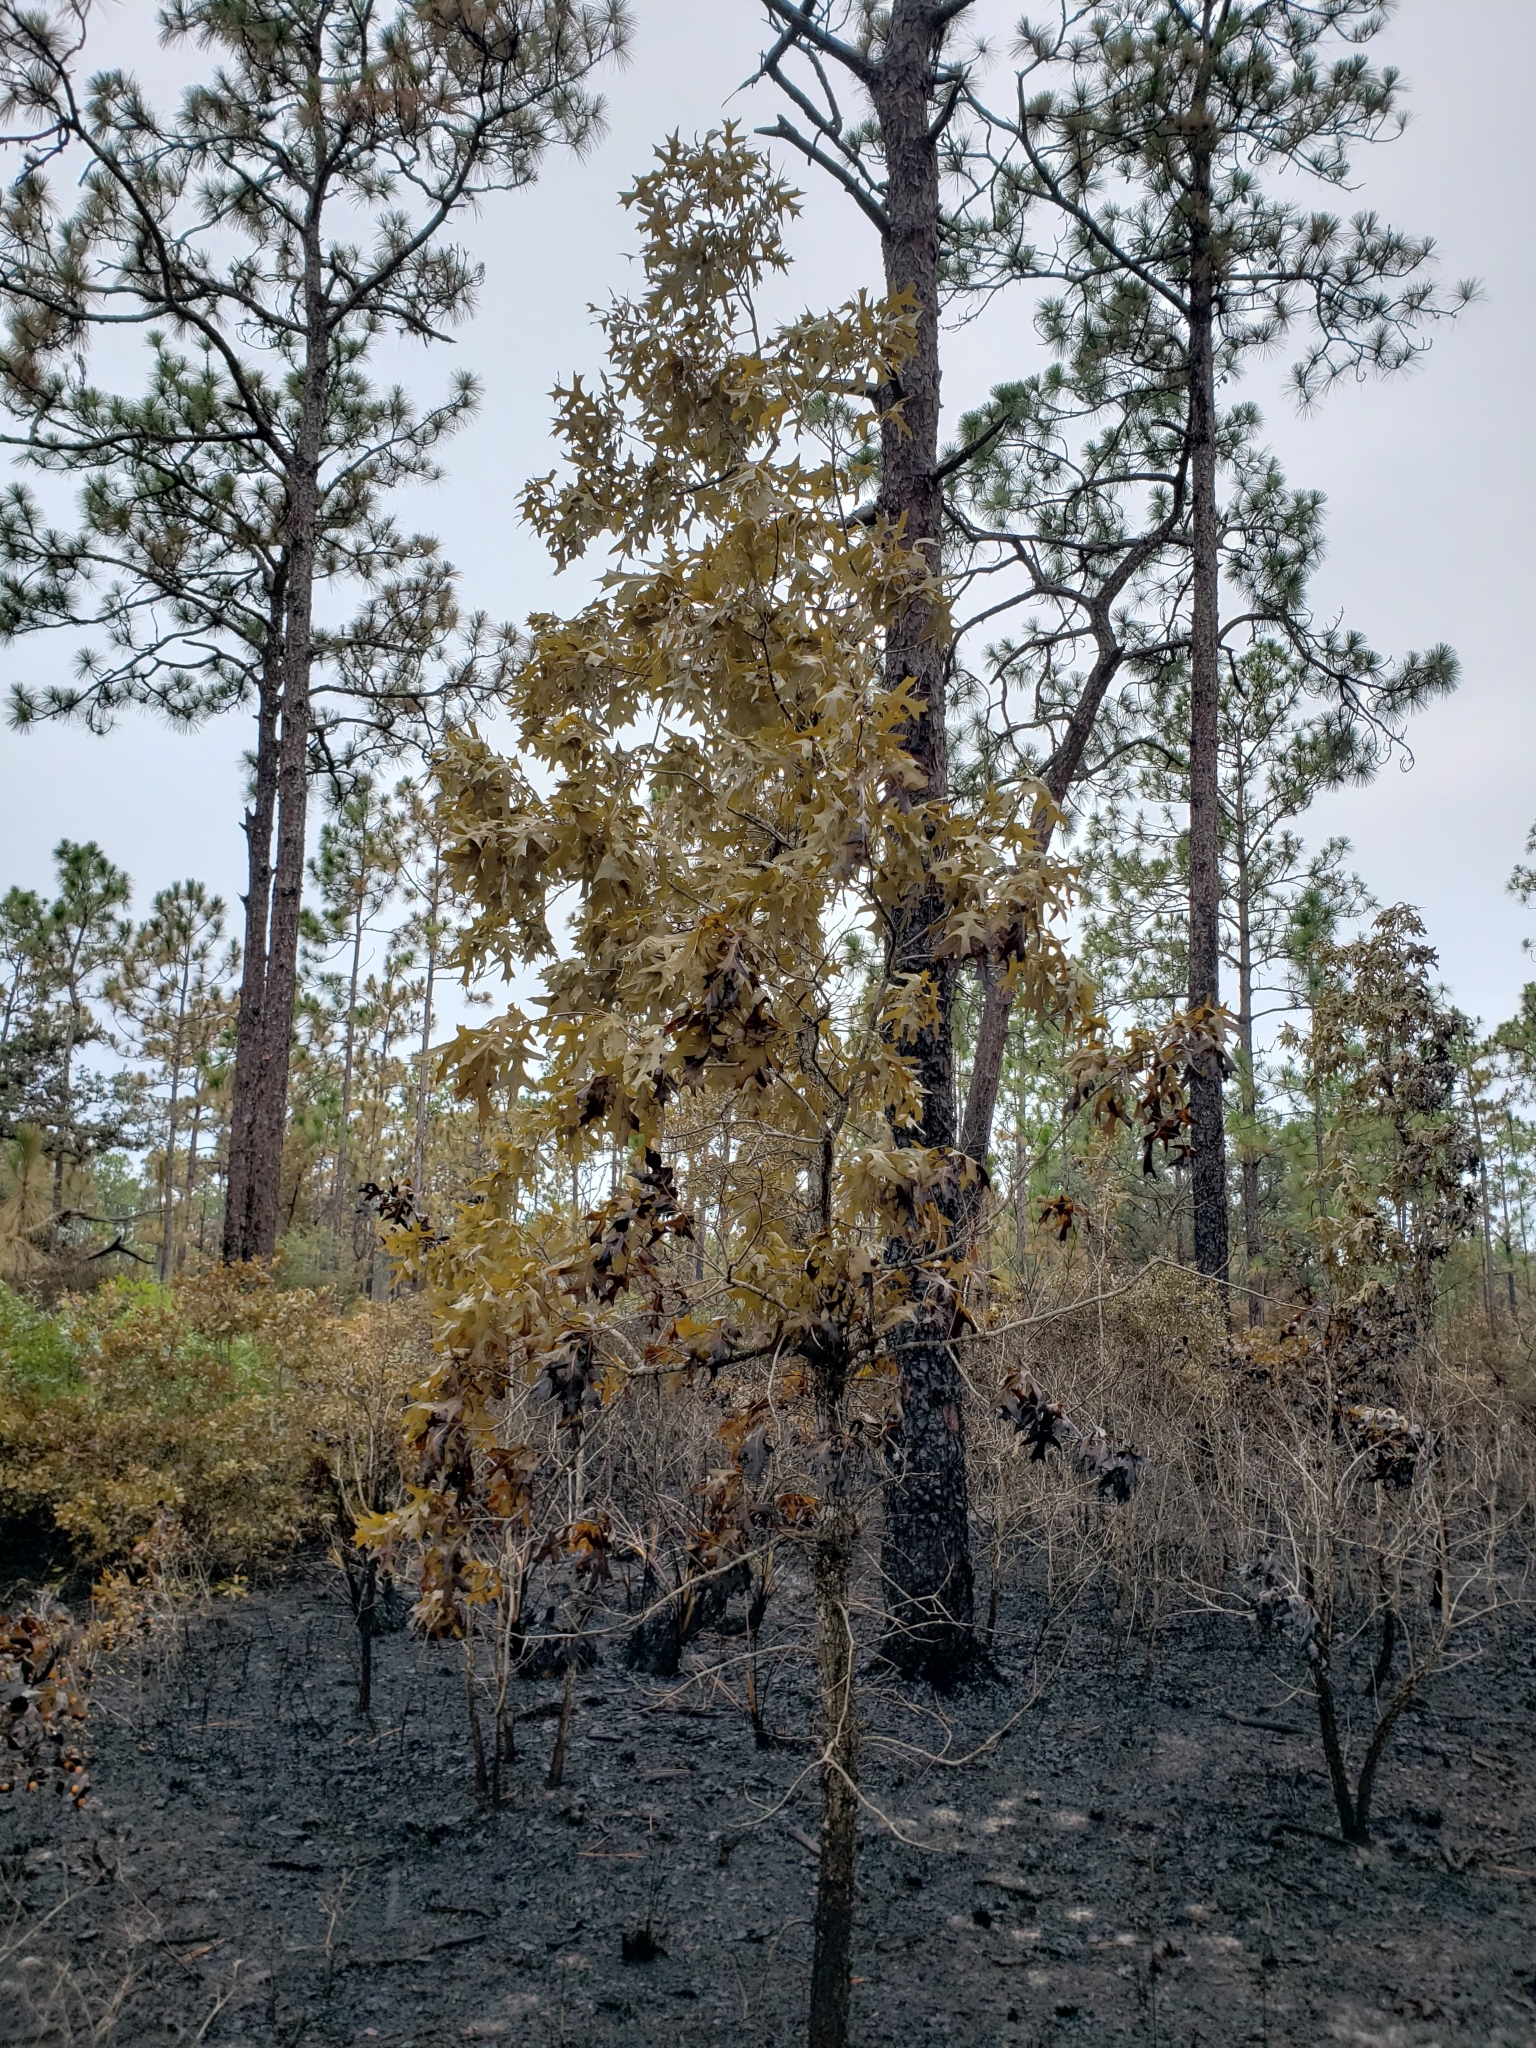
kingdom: Plantae
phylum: Tracheophyta
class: Magnoliopsida
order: Fagales
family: Fagaceae
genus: Quercus
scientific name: Quercus laevis
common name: Turkey oak
